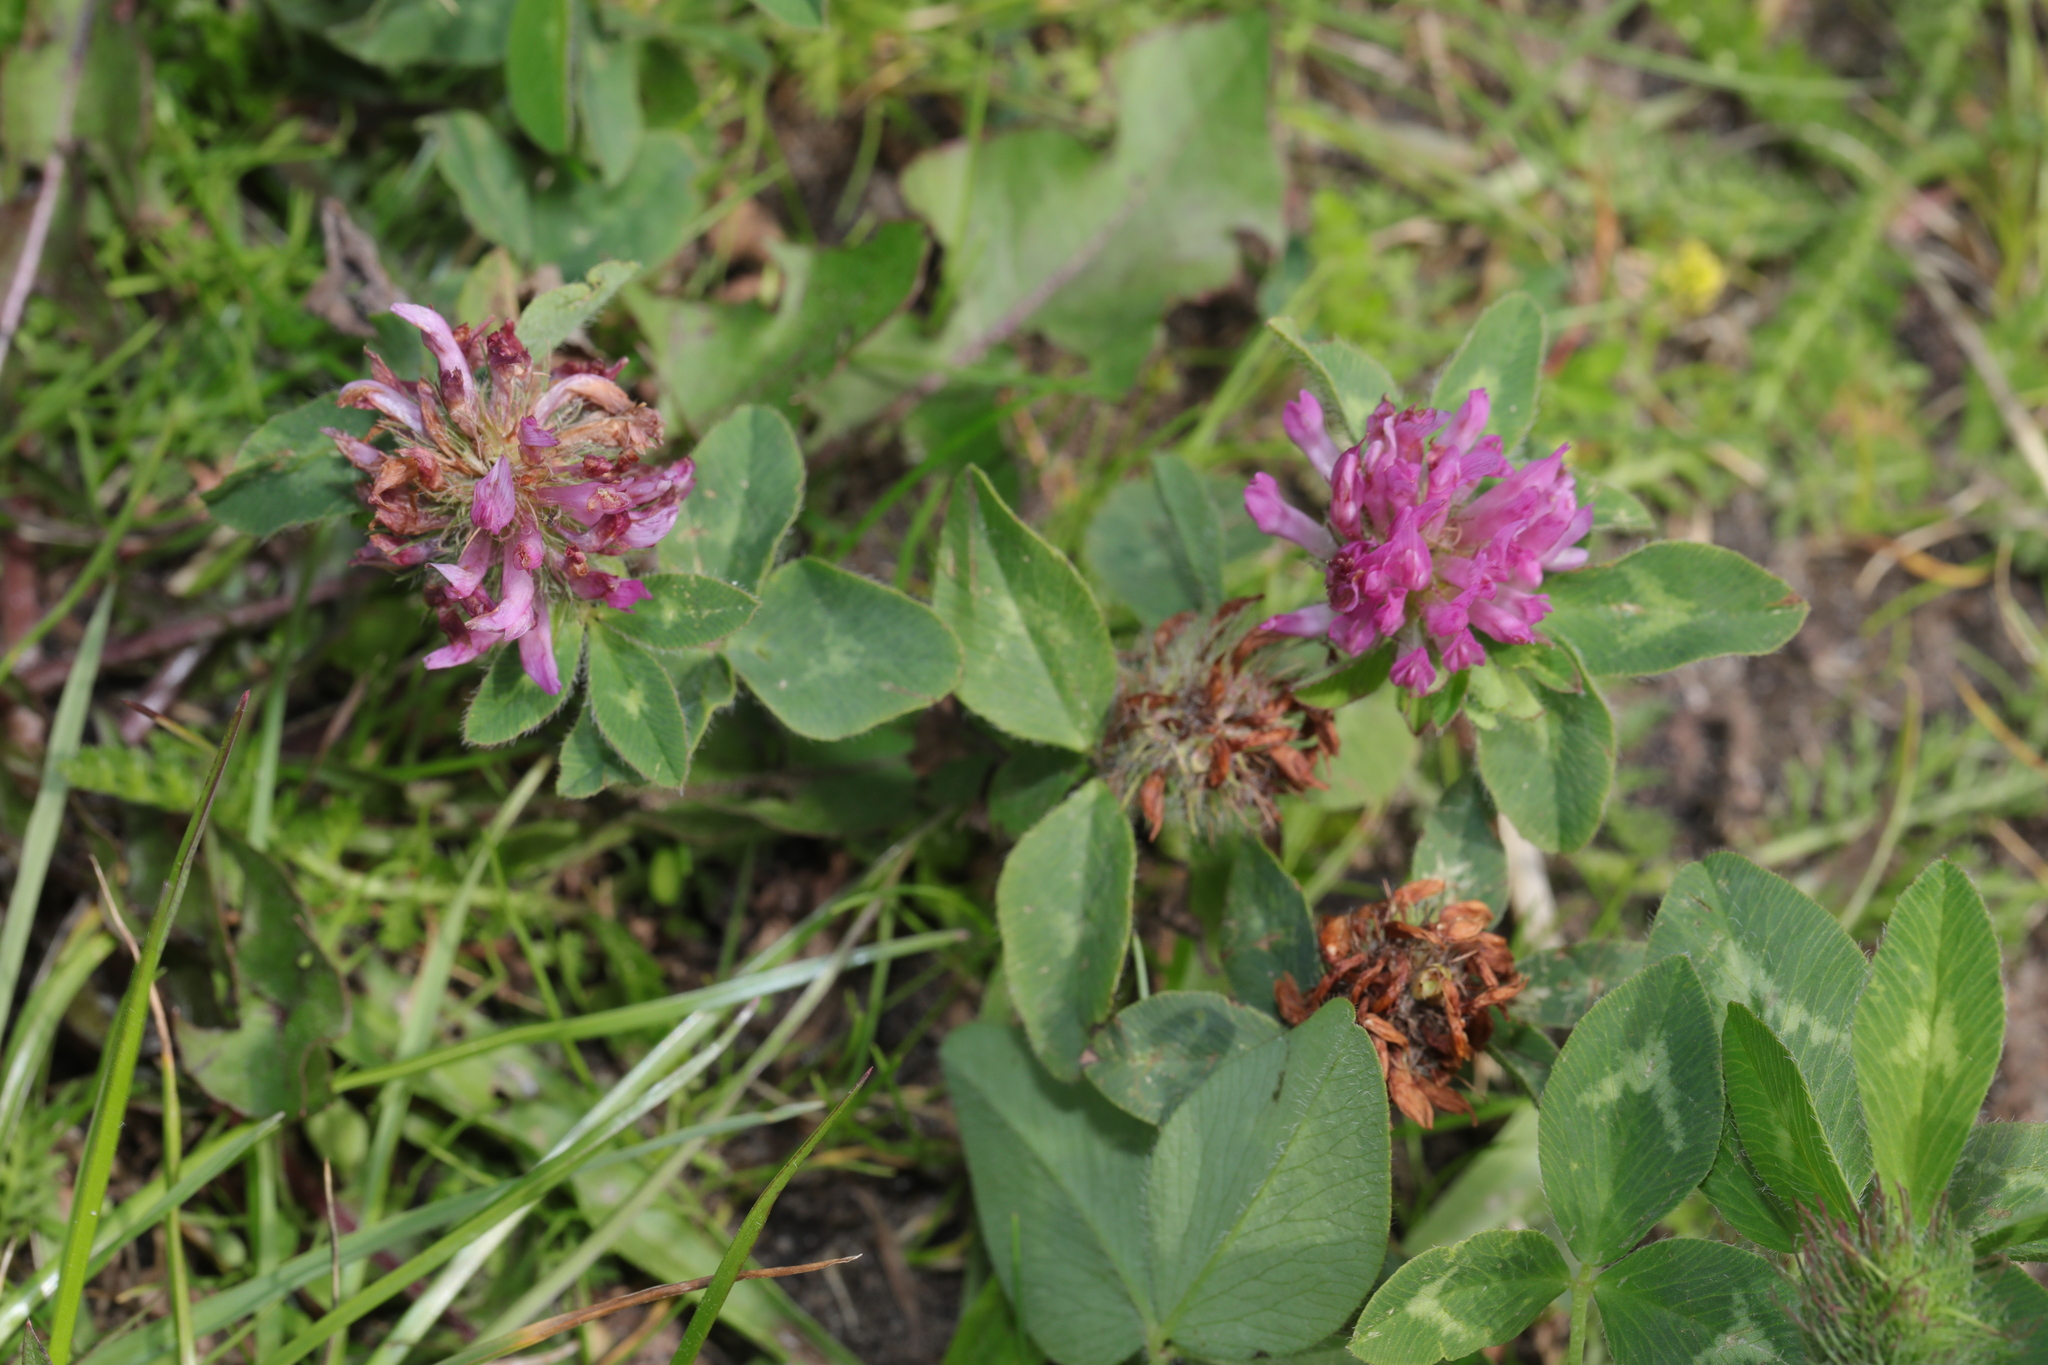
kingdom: Plantae
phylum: Tracheophyta
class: Magnoliopsida
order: Fabales
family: Fabaceae
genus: Trifolium
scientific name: Trifolium pratense
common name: Red clover
